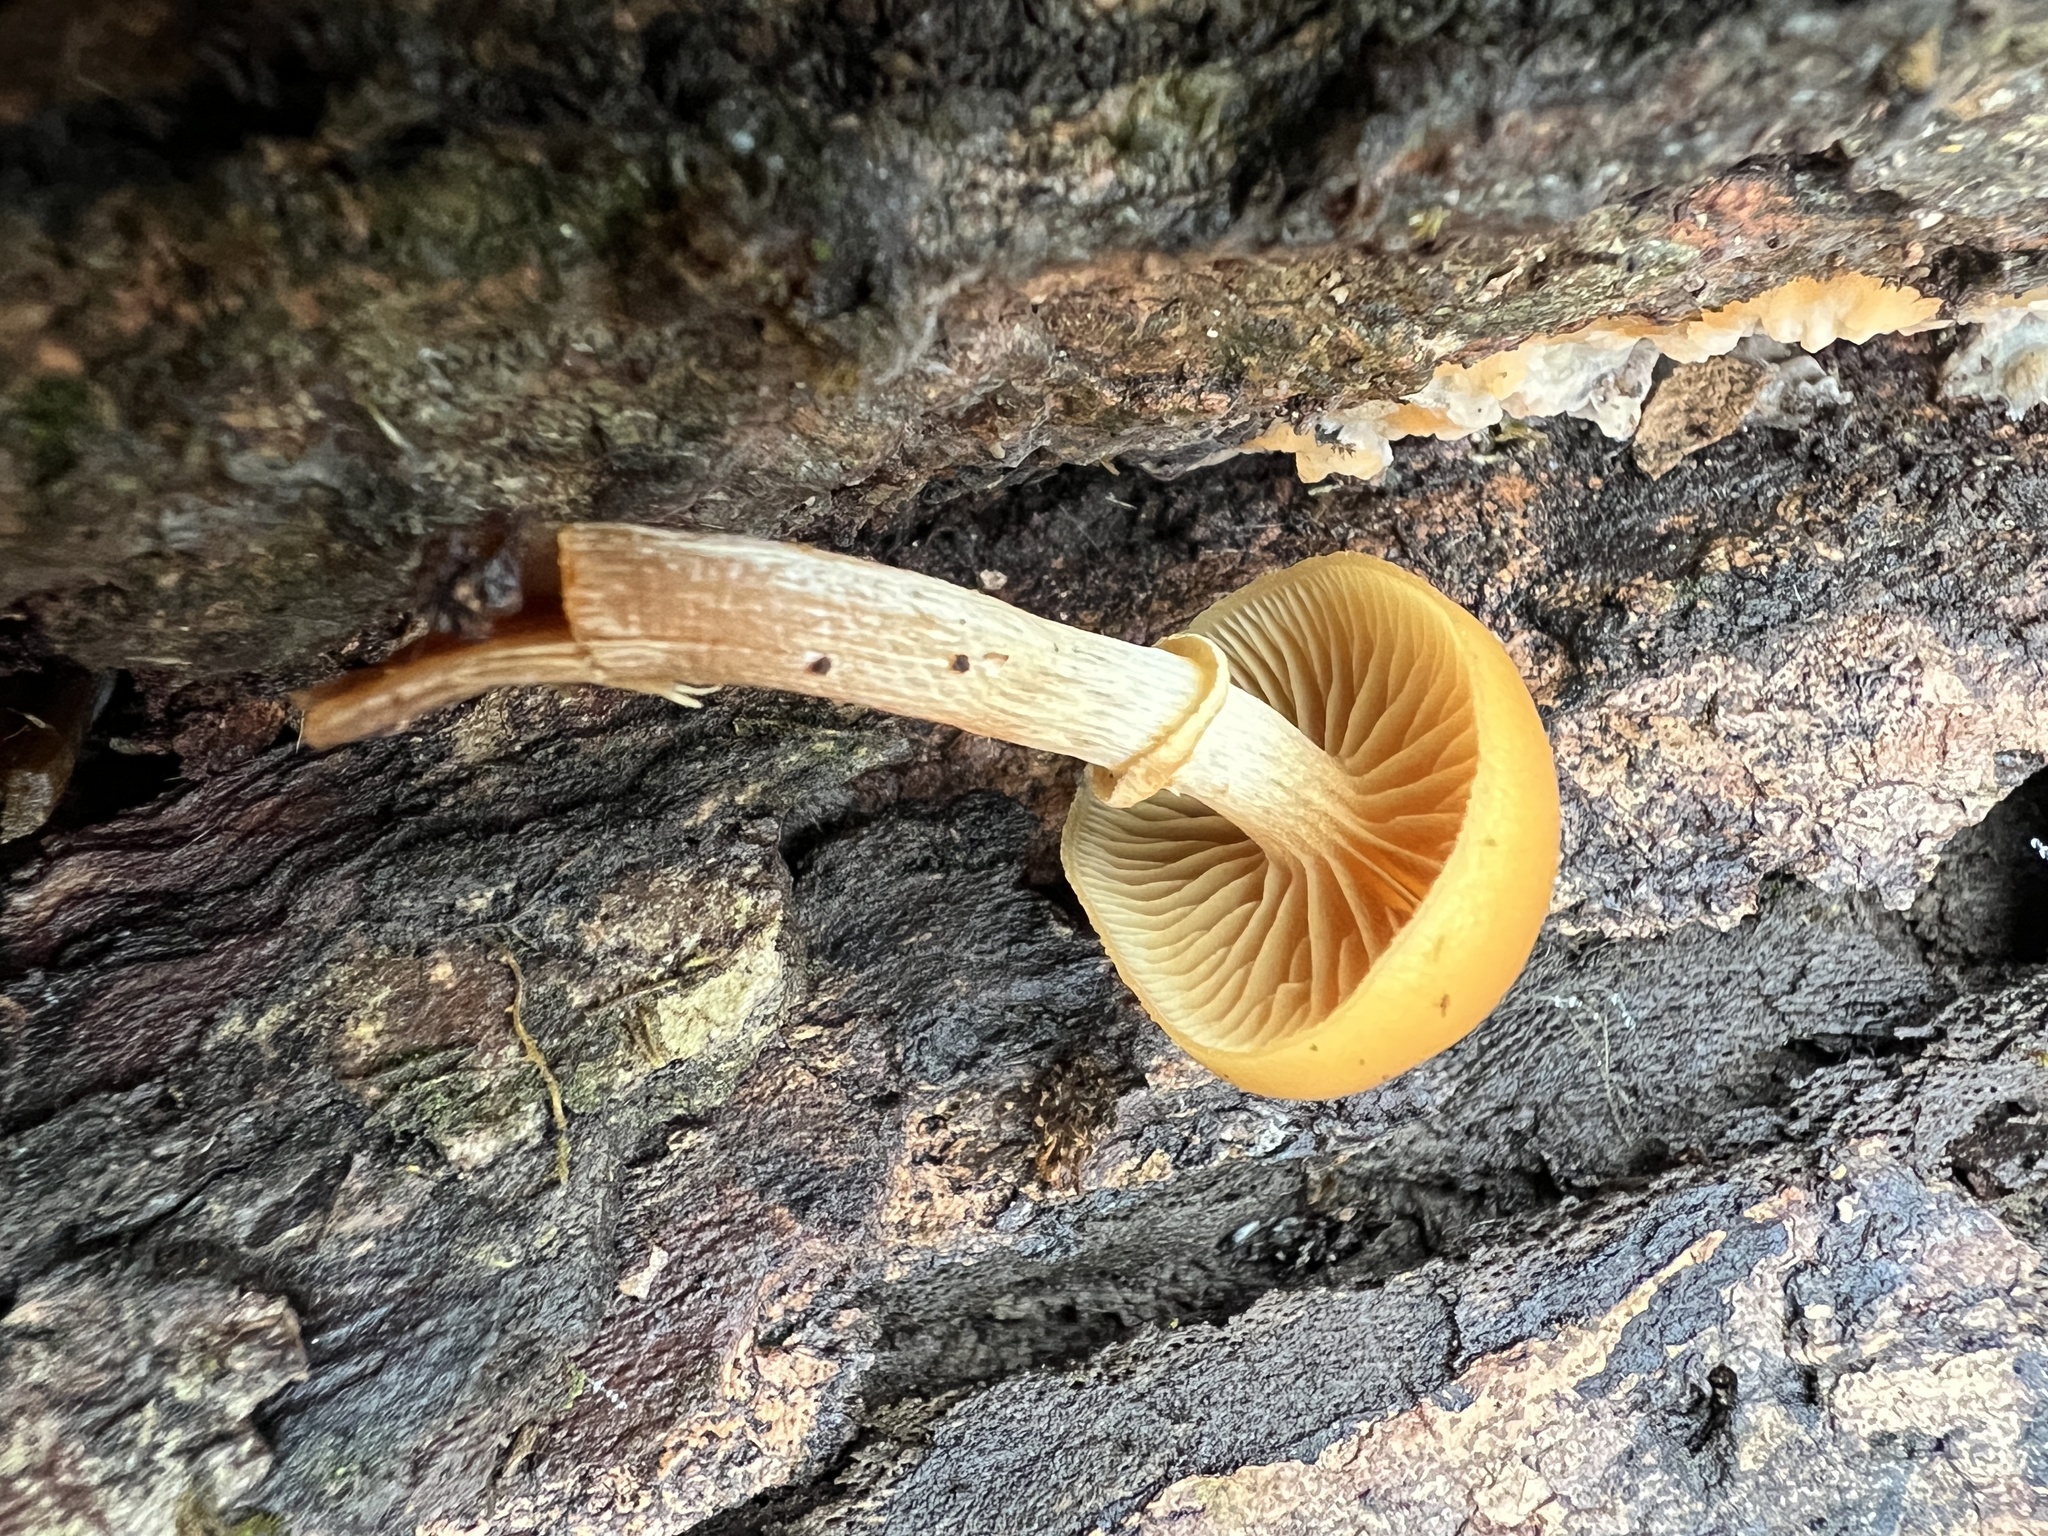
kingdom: Fungi
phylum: Basidiomycota
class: Agaricomycetes
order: Agaricales
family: Hymenogastraceae
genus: Galerina
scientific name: Galerina marginata
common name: Funeral bell
